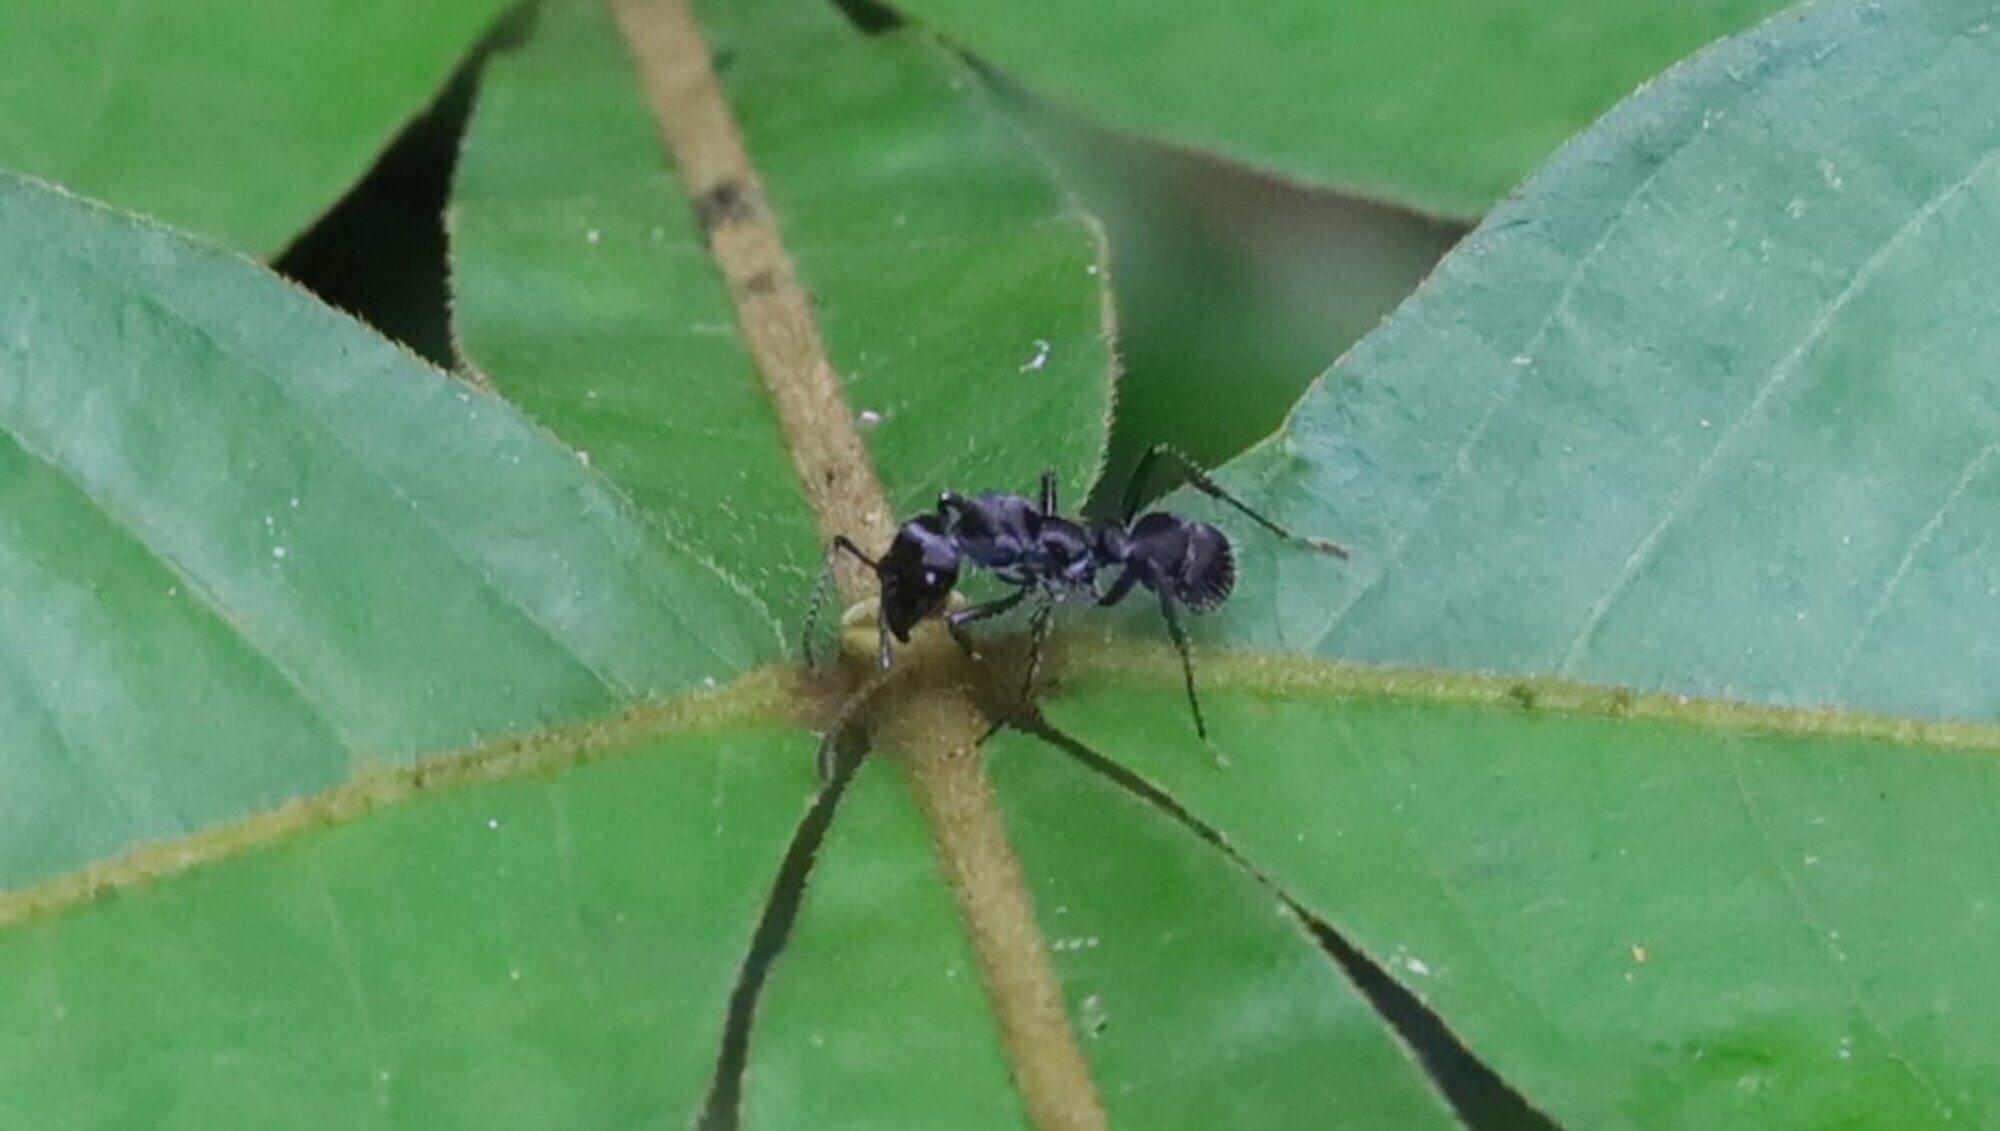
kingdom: Animalia
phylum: Arthropoda
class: Insecta
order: Hymenoptera
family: Formicidae
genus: Ectatomma
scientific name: Ectatomma brunneum
